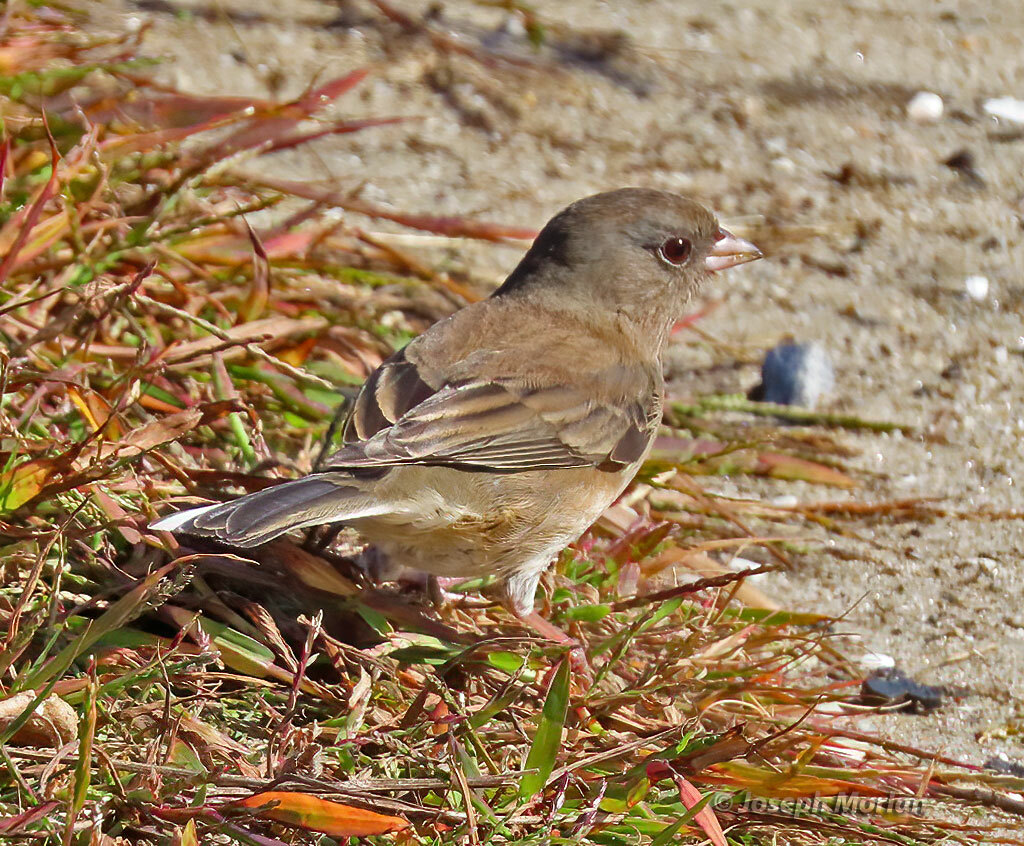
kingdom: Animalia
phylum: Chordata
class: Aves
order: Passeriformes
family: Passerellidae
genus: Junco
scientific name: Junco hyemalis
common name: Dark-eyed junco
